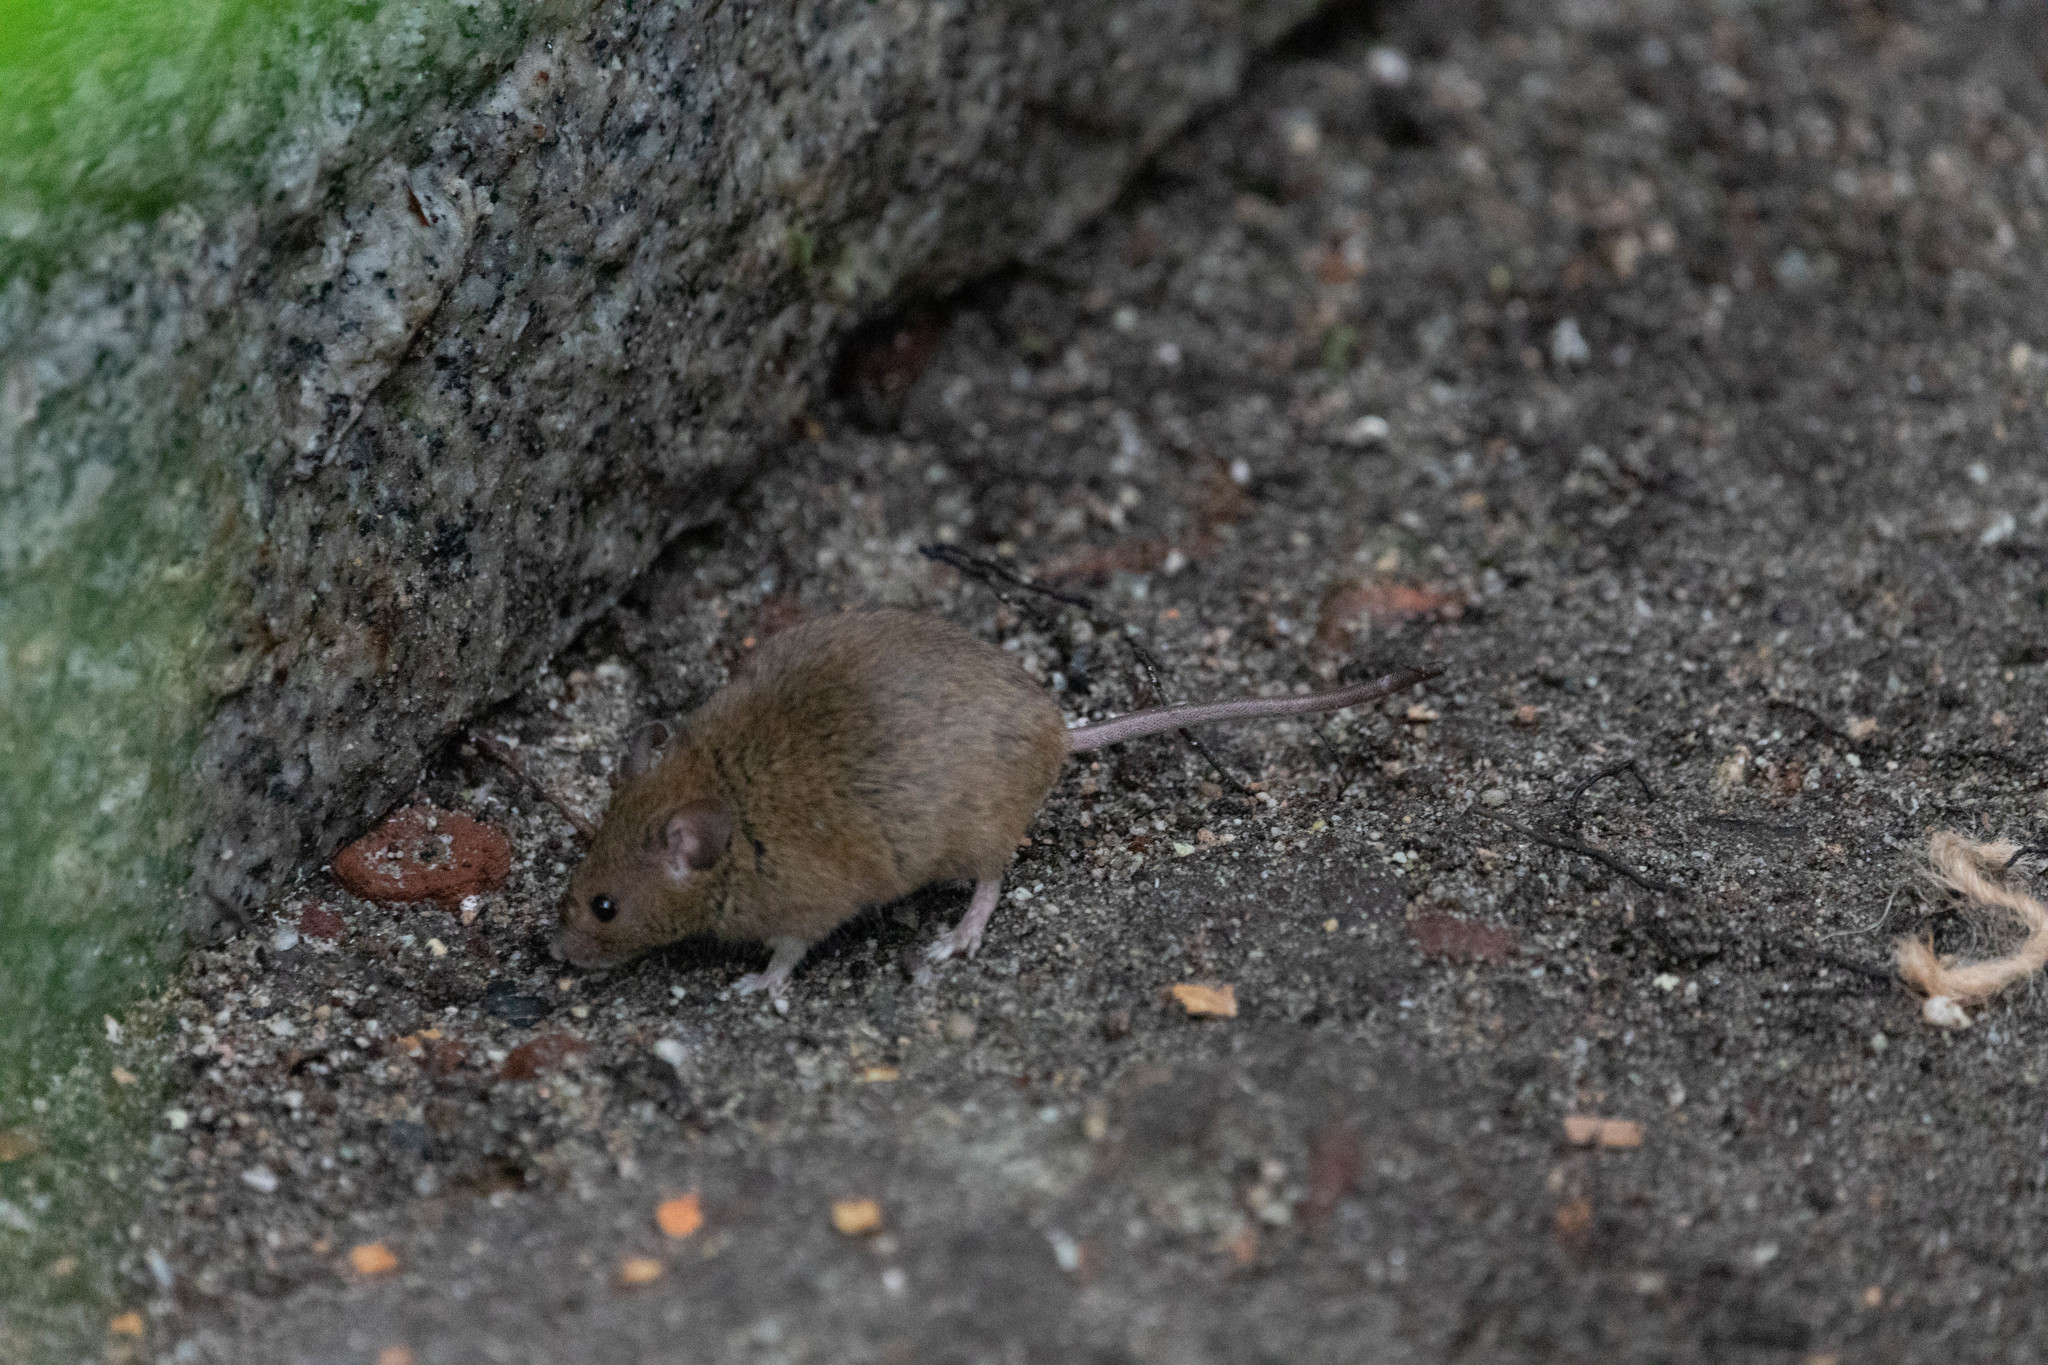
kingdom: Animalia
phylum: Chordata
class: Mammalia
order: Rodentia
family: Muridae
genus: Mus
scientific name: Mus musculus
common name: House mouse
